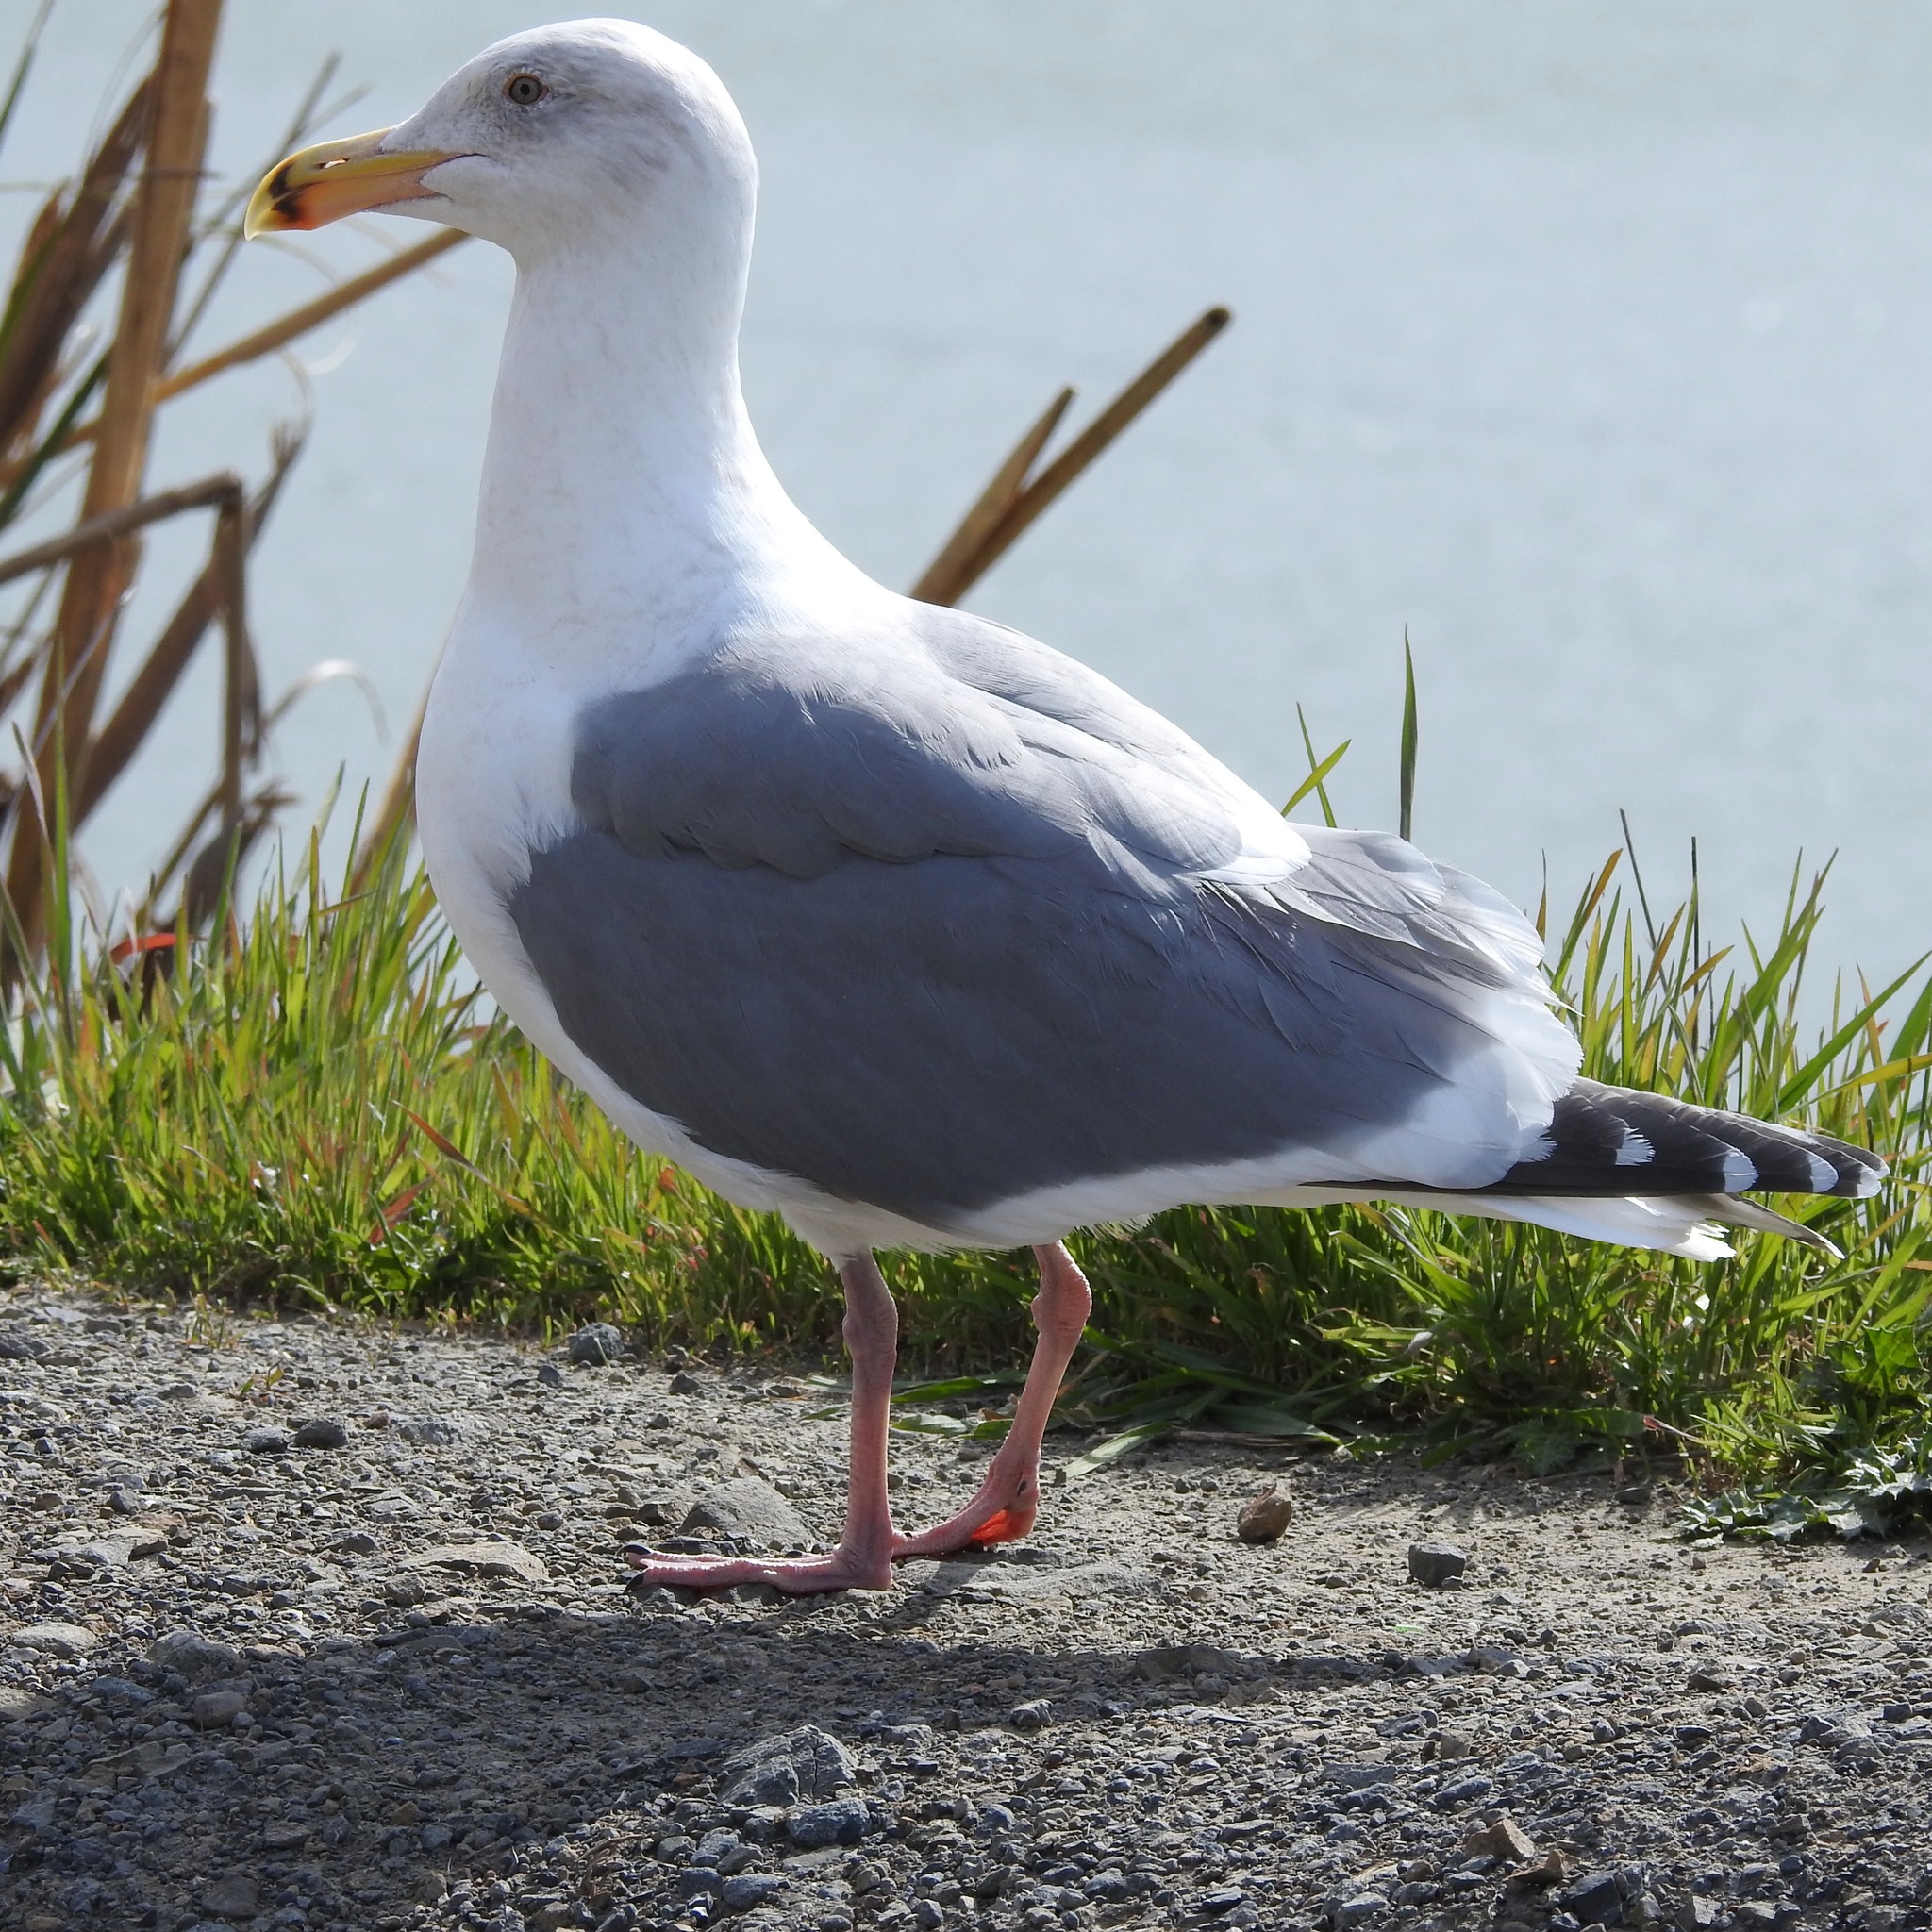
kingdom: Animalia
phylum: Chordata
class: Aves
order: Charadriiformes
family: Laridae
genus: Larus
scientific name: Larus occidentalis
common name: Western gull
